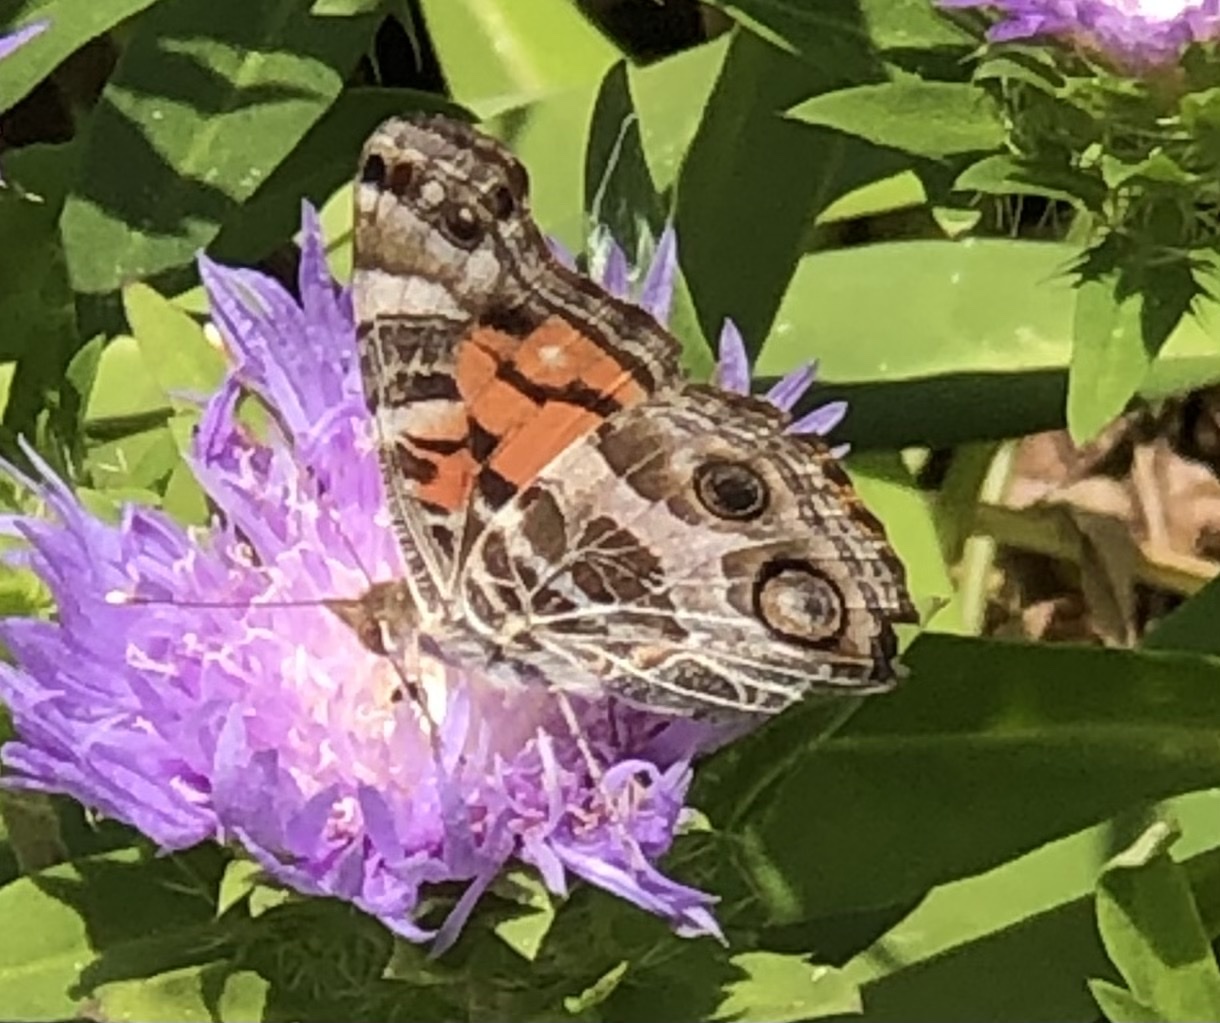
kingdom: Animalia
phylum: Arthropoda
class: Insecta
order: Lepidoptera
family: Nymphalidae
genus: Vanessa
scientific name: Vanessa virginiensis
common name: American lady
